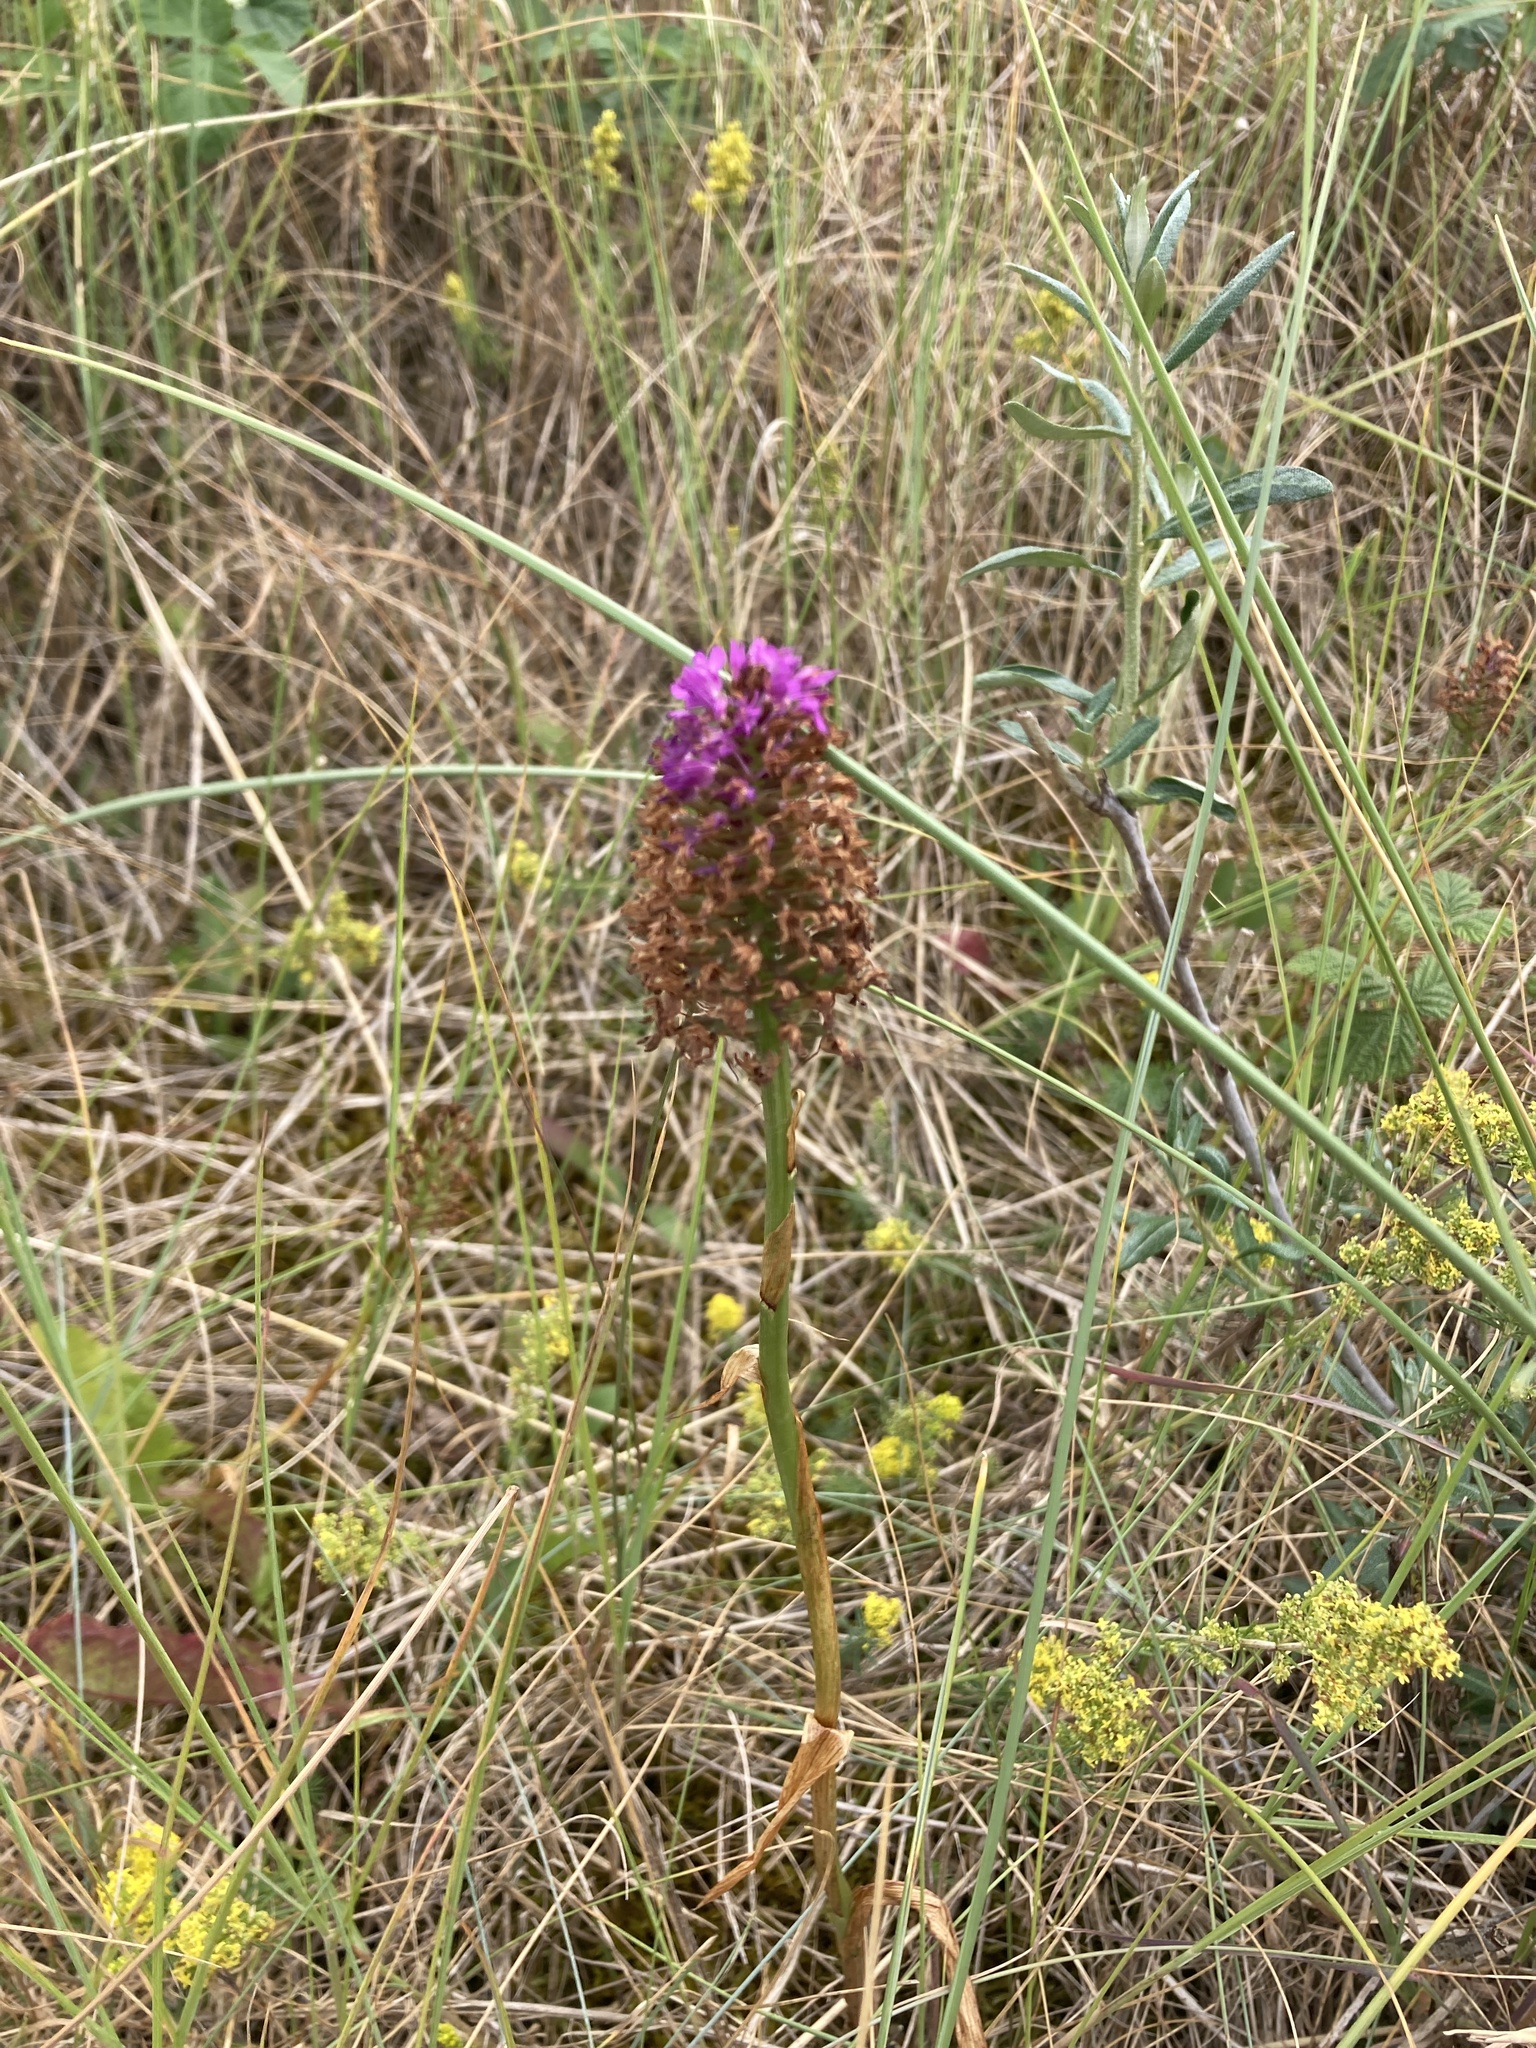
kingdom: Plantae
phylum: Tracheophyta
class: Liliopsida
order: Asparagales
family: Orchidaceae
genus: Anacamptis
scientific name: Anacamptis pyramidalis
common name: Pyramidal orchid
